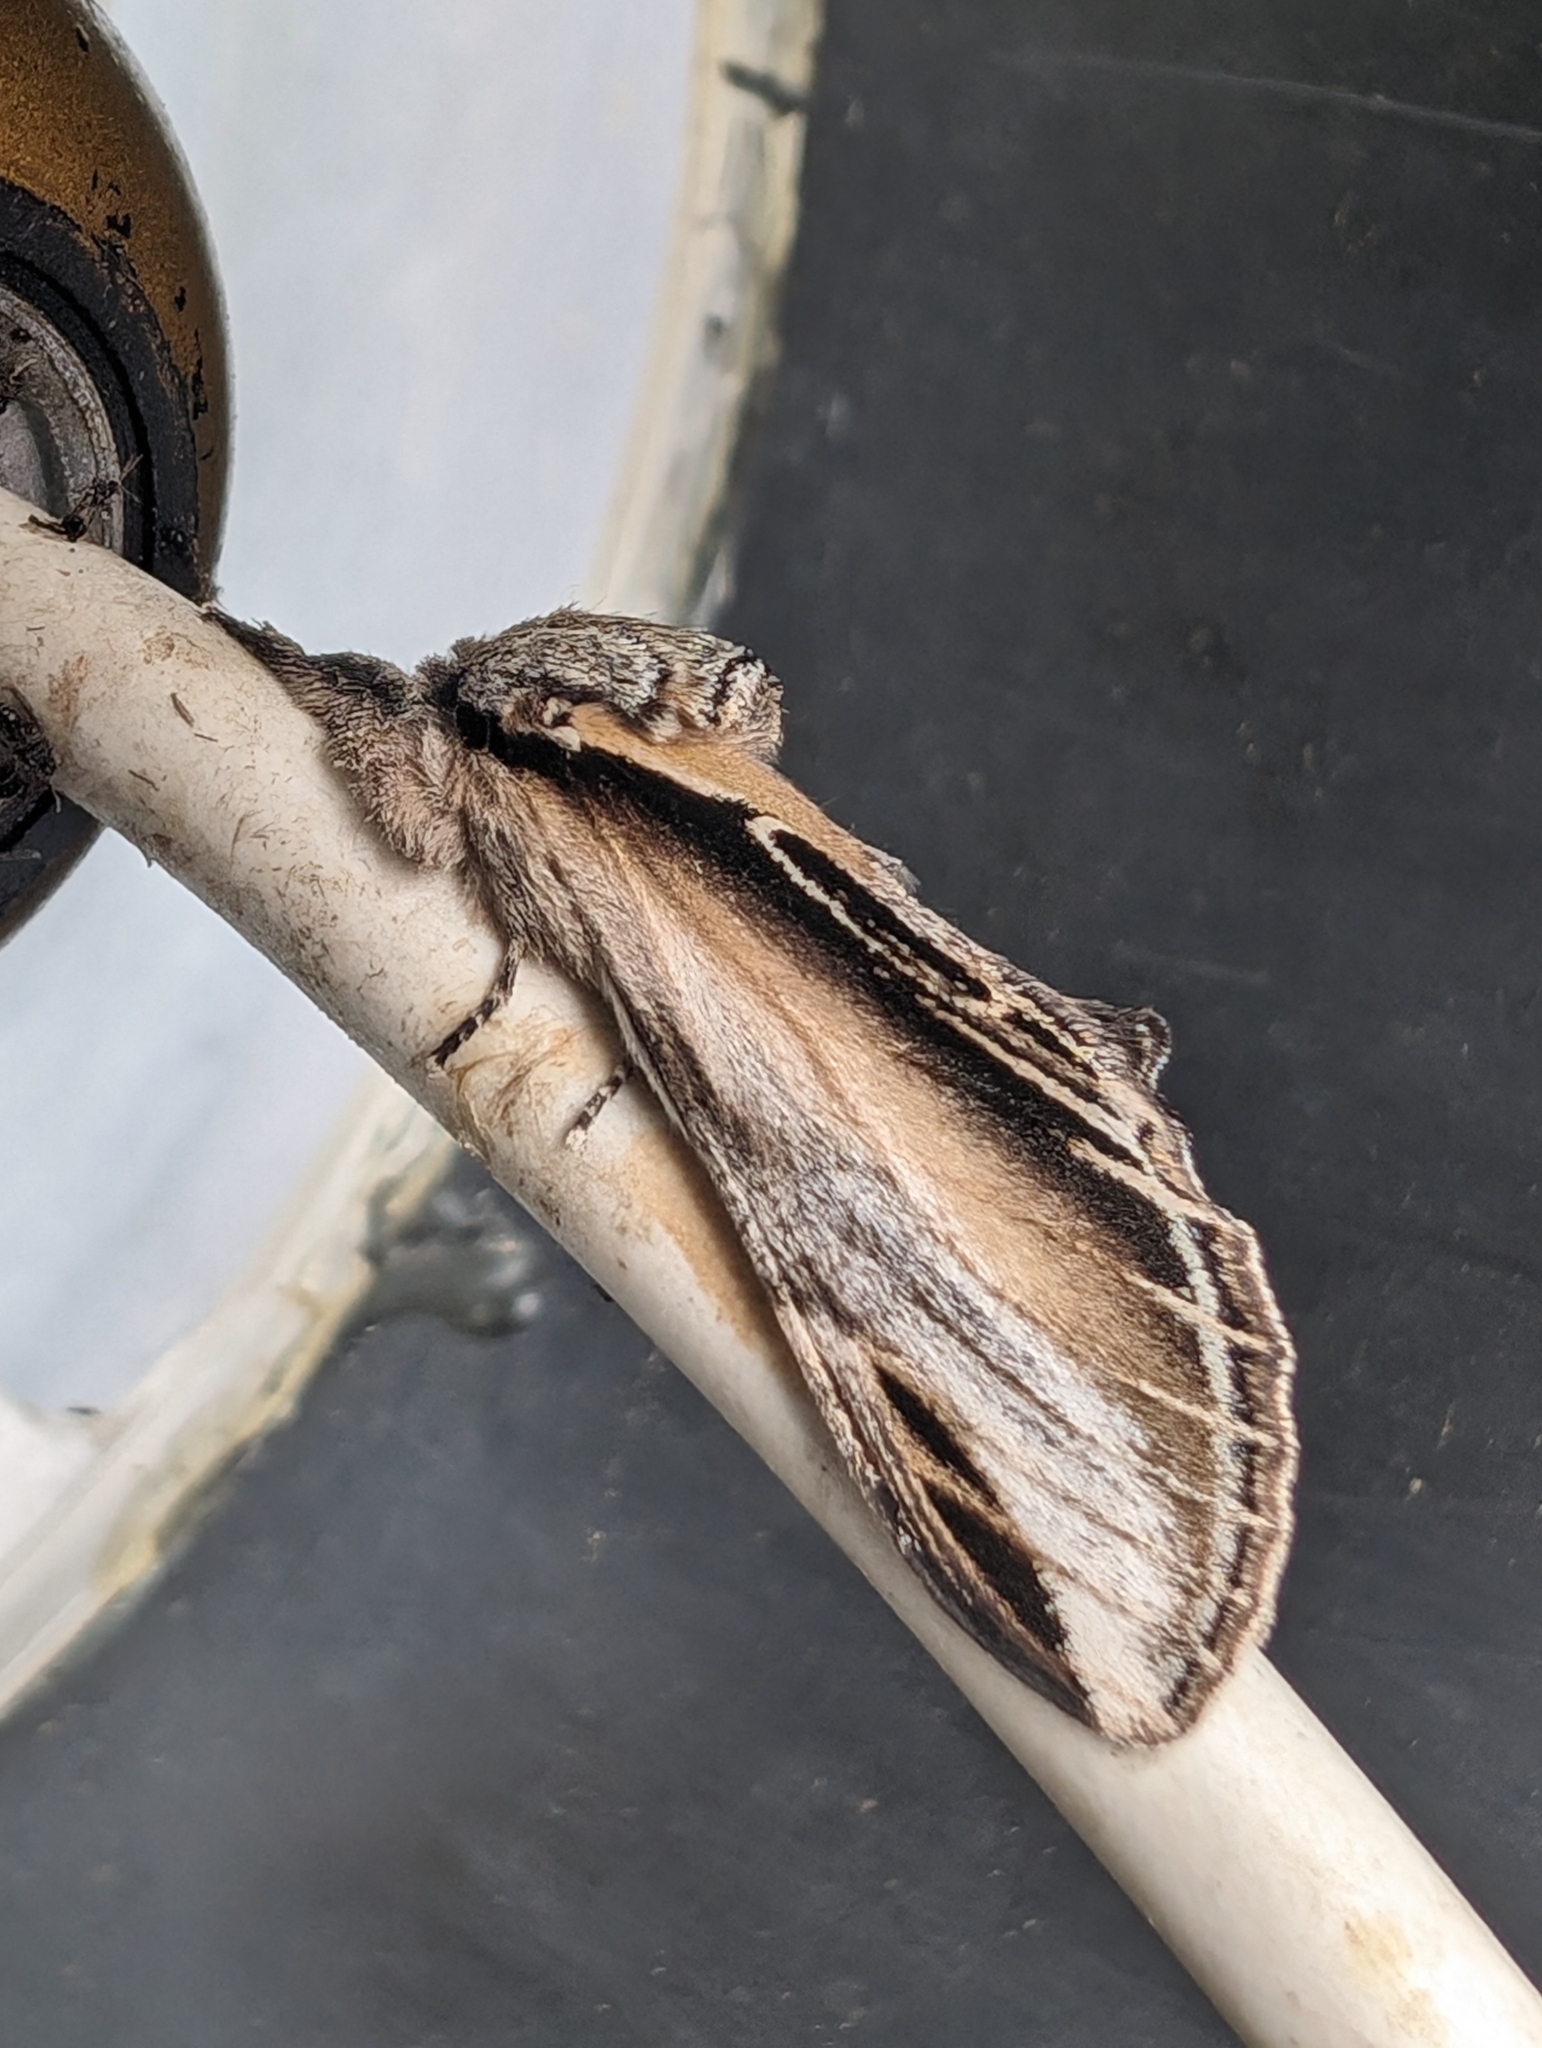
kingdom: Animalia
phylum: Arthropoda
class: Insecta
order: Lepidoptera
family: Notodontidae
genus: Pheosia
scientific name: Pheosia tremula
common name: Swallow prominent
